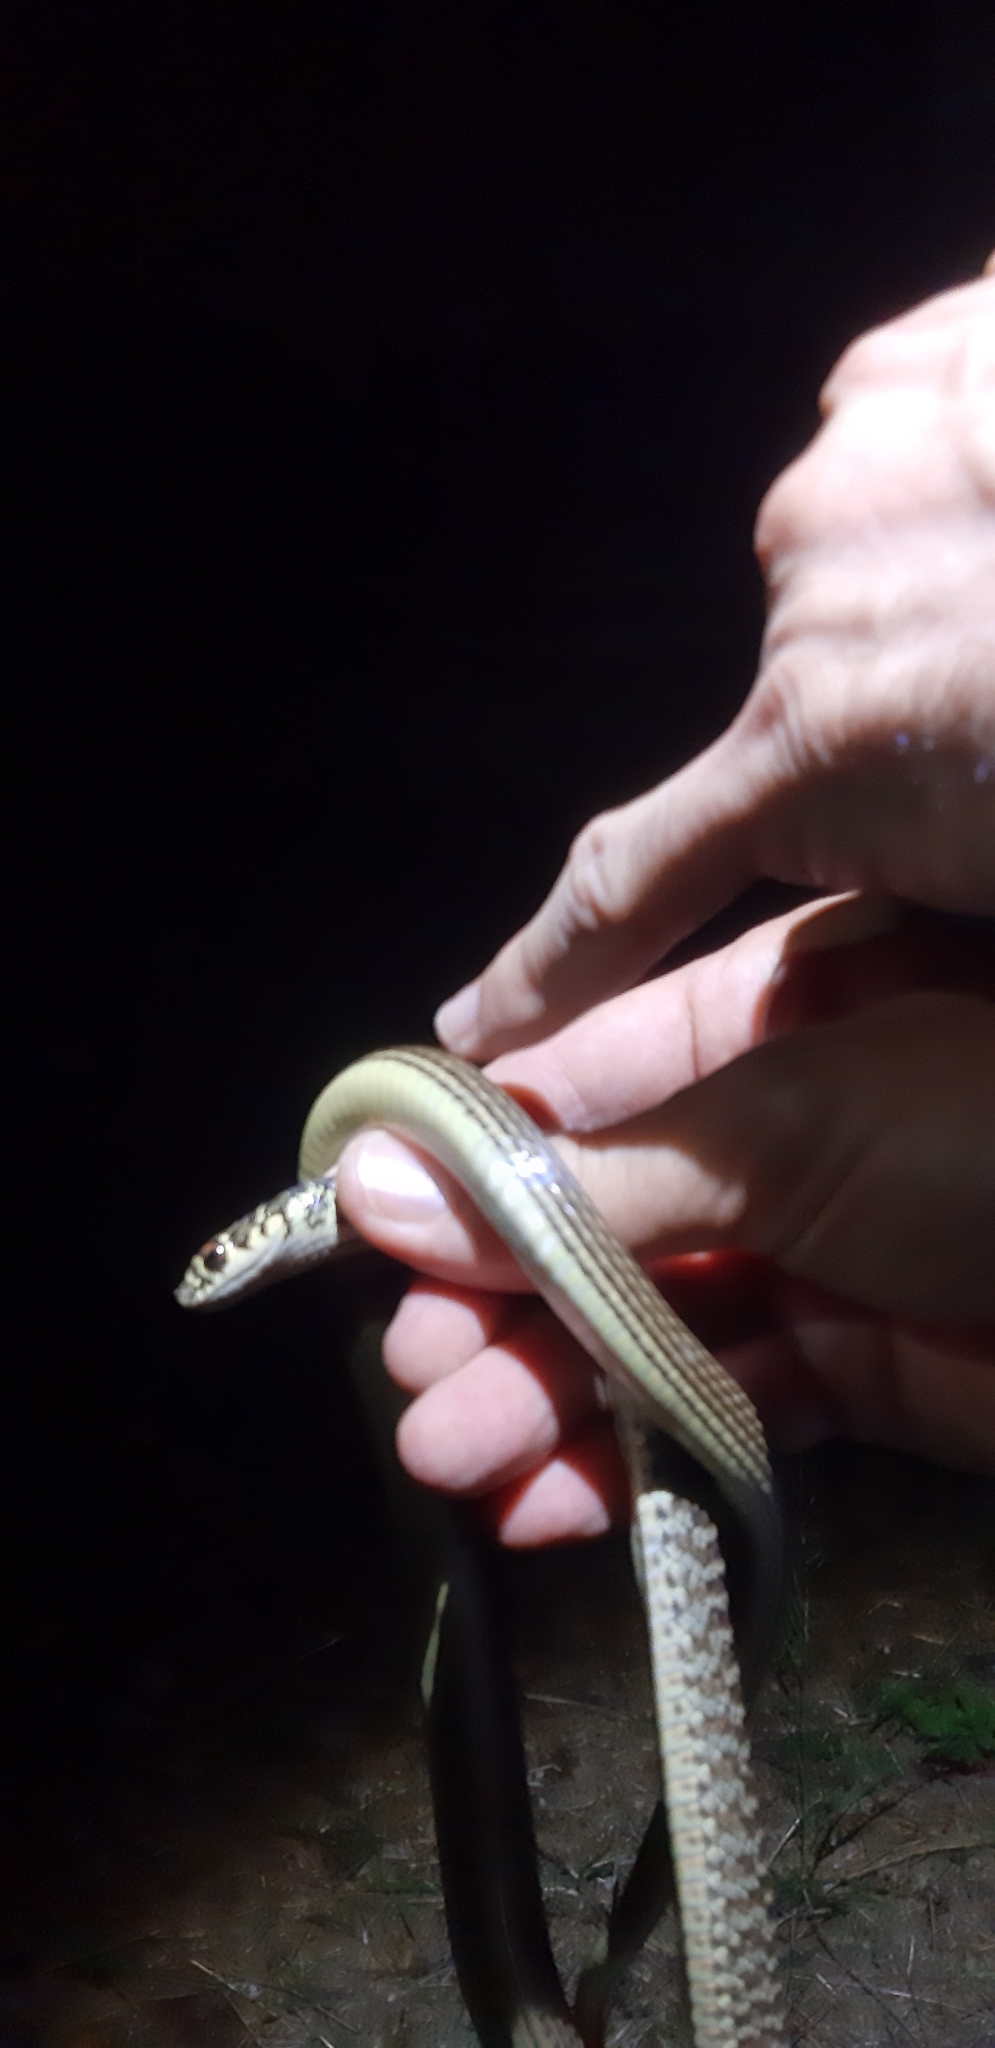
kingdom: Animalia
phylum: Chordata
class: Squamata
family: Colubridae
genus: Hierophis
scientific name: Hierophis viridiflavus
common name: Green whip snake
